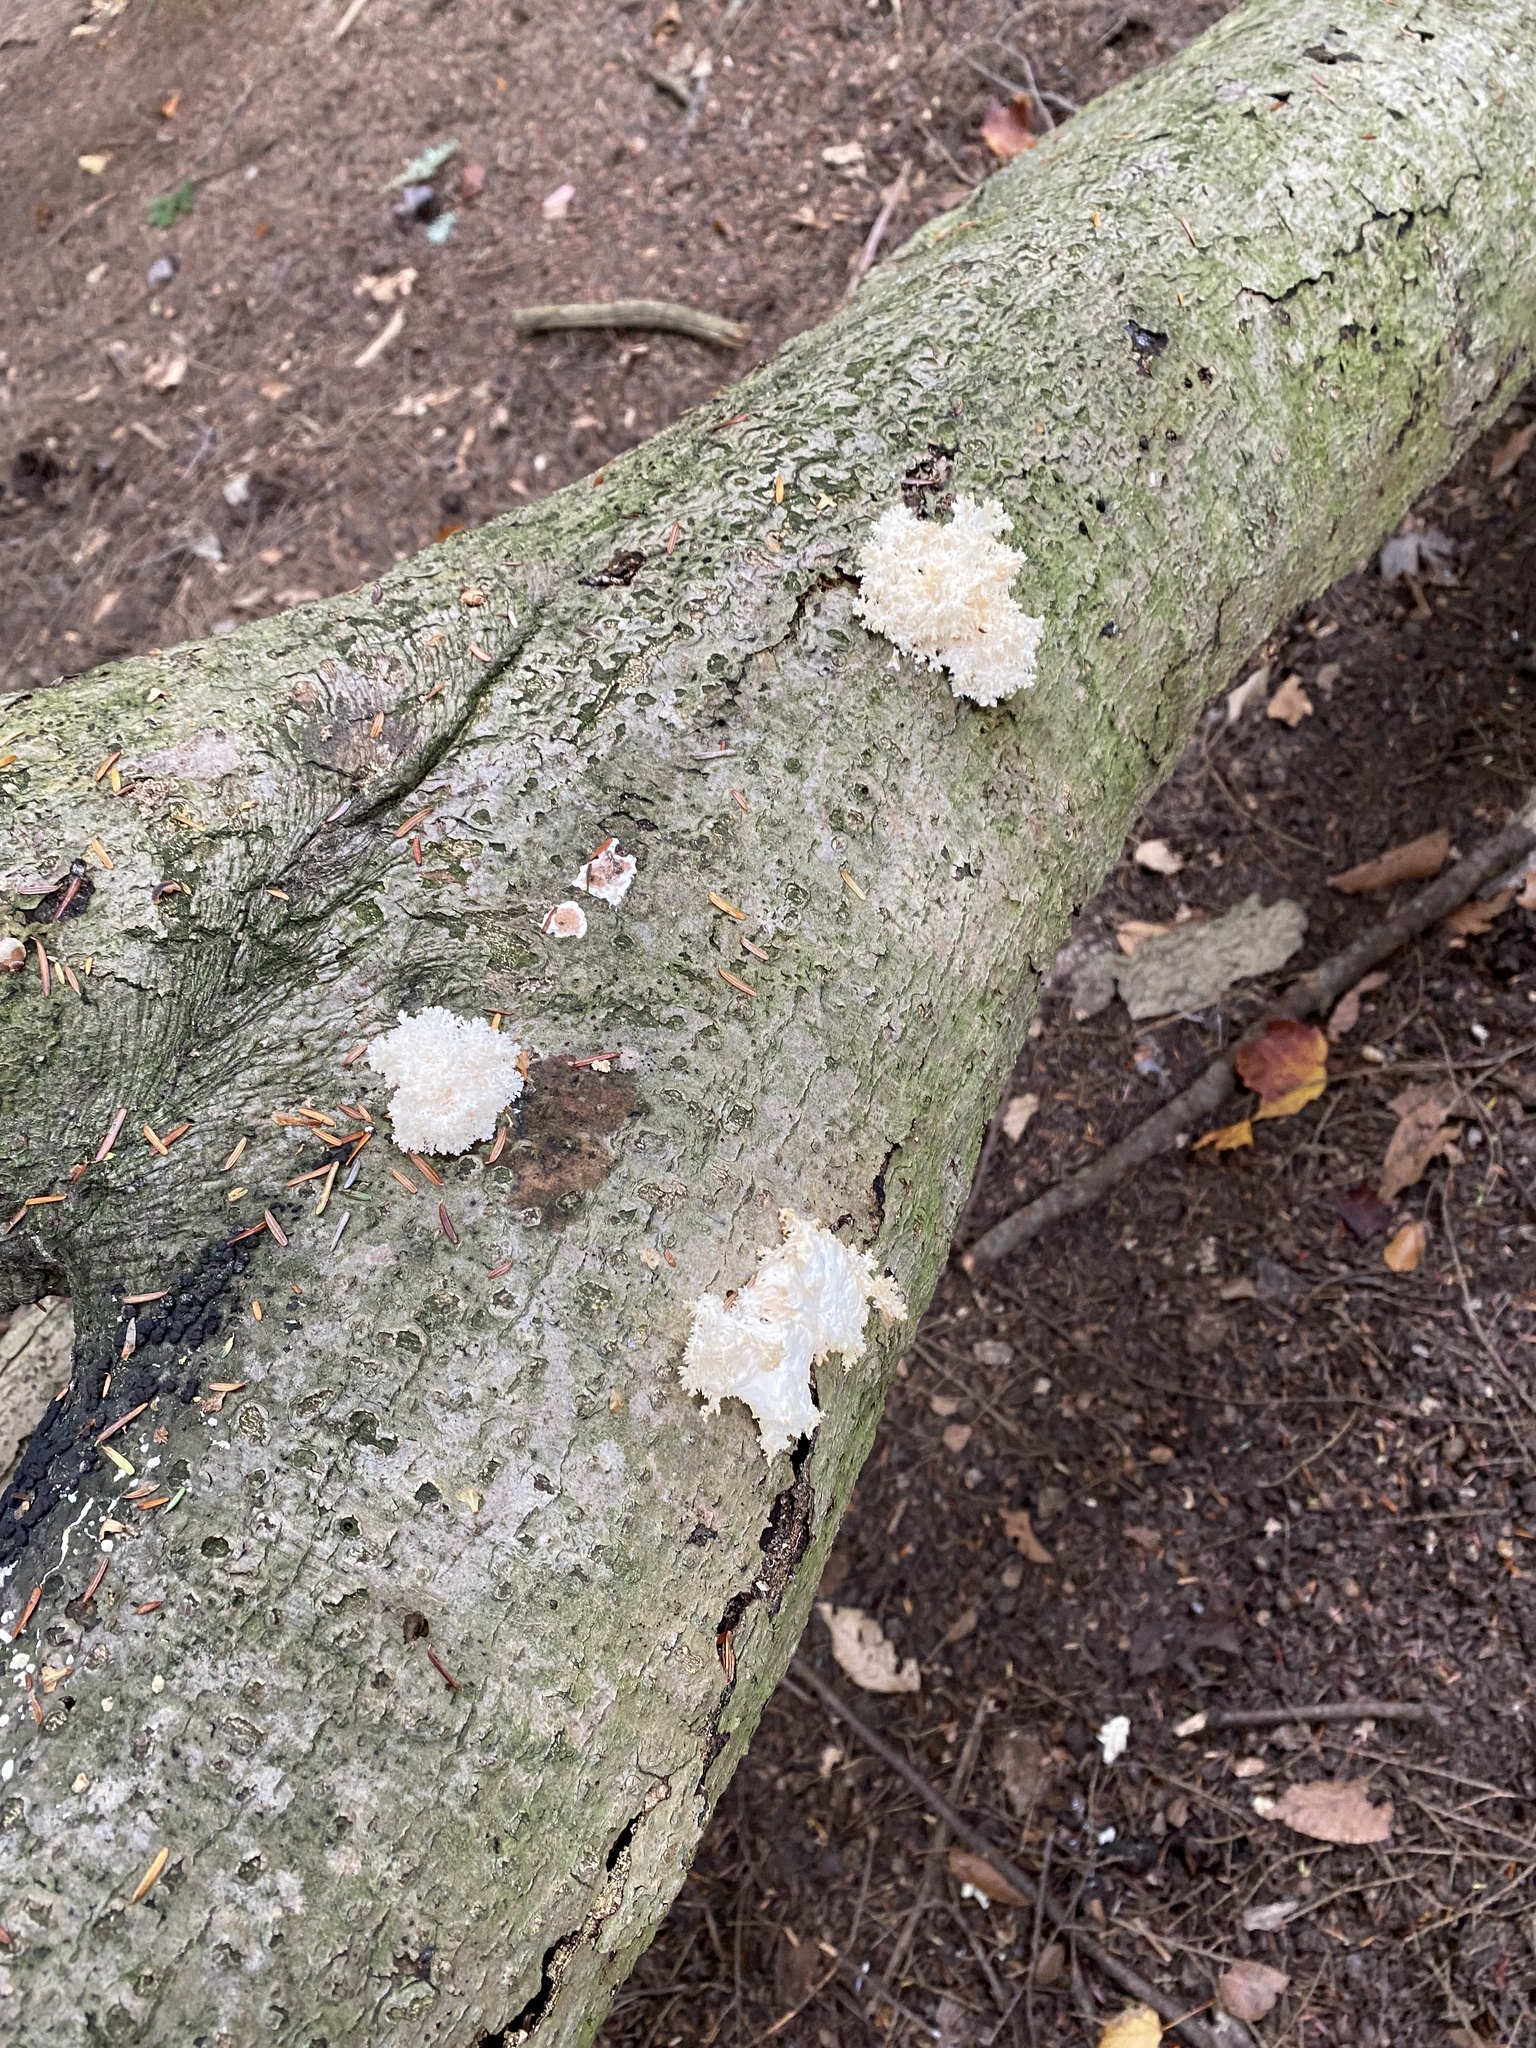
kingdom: Fungi
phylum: Basidiomycota
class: Agaricomycetes
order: Russulales
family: Hericiaceae
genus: Hericium
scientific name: Hericium americanum
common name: Bear's head tooth
